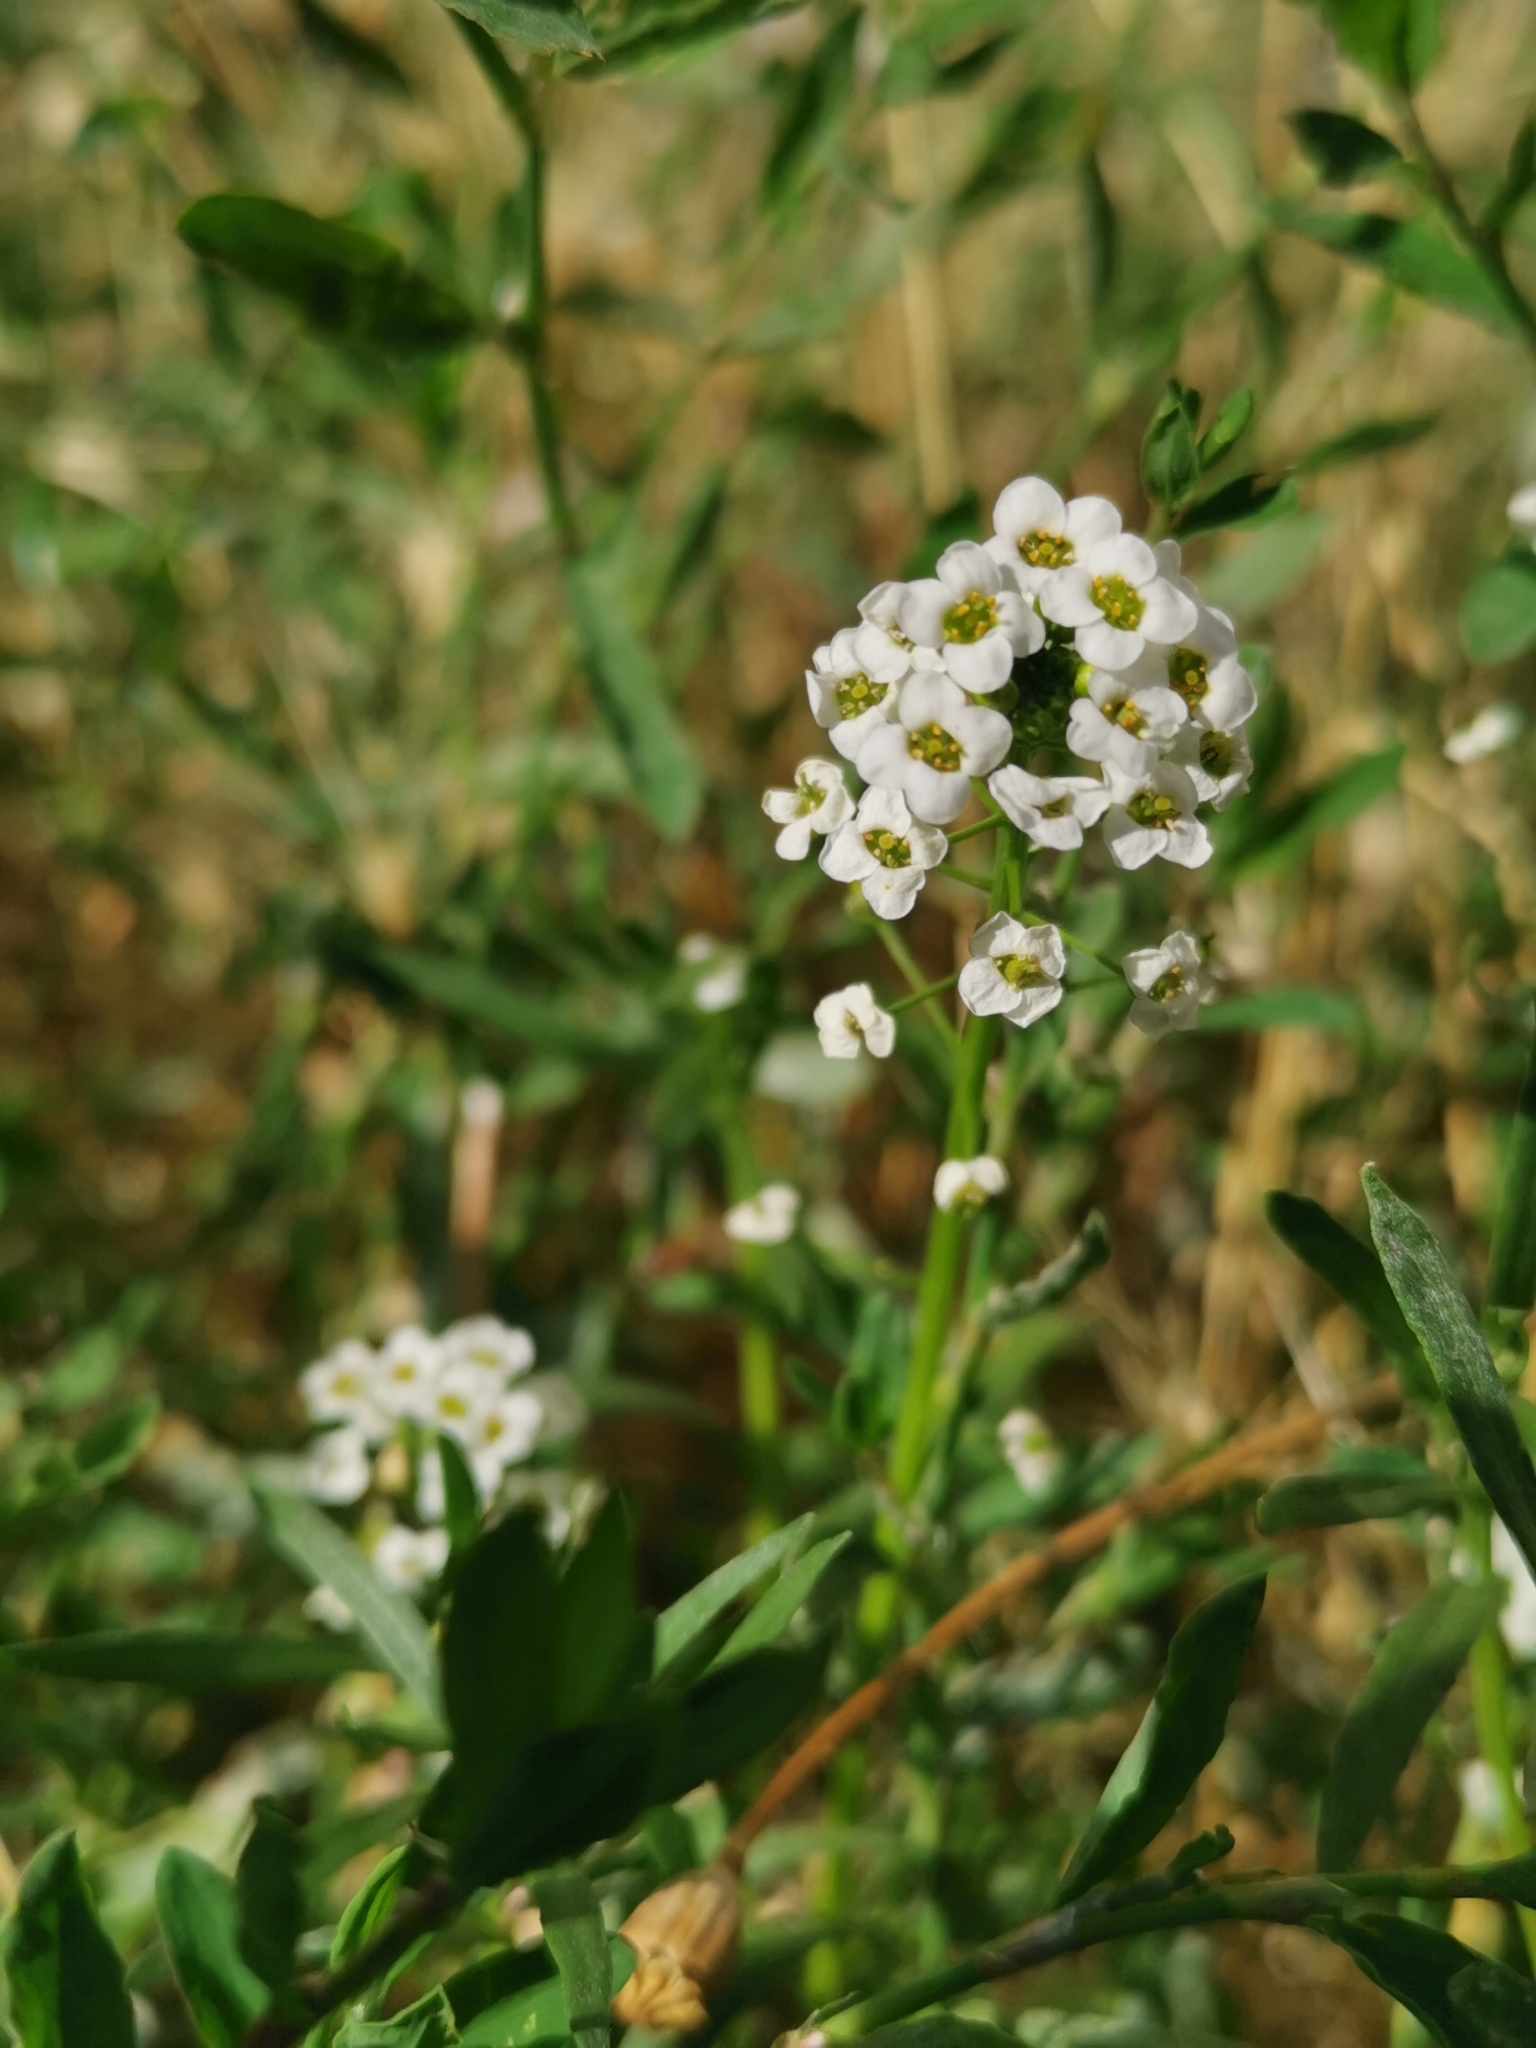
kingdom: Plantae
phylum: Tracheophyta
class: Magnoliopsida
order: Brassicales
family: Brassicaceae
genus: Lobularia
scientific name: Lobularia maritima
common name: Sweet alison
